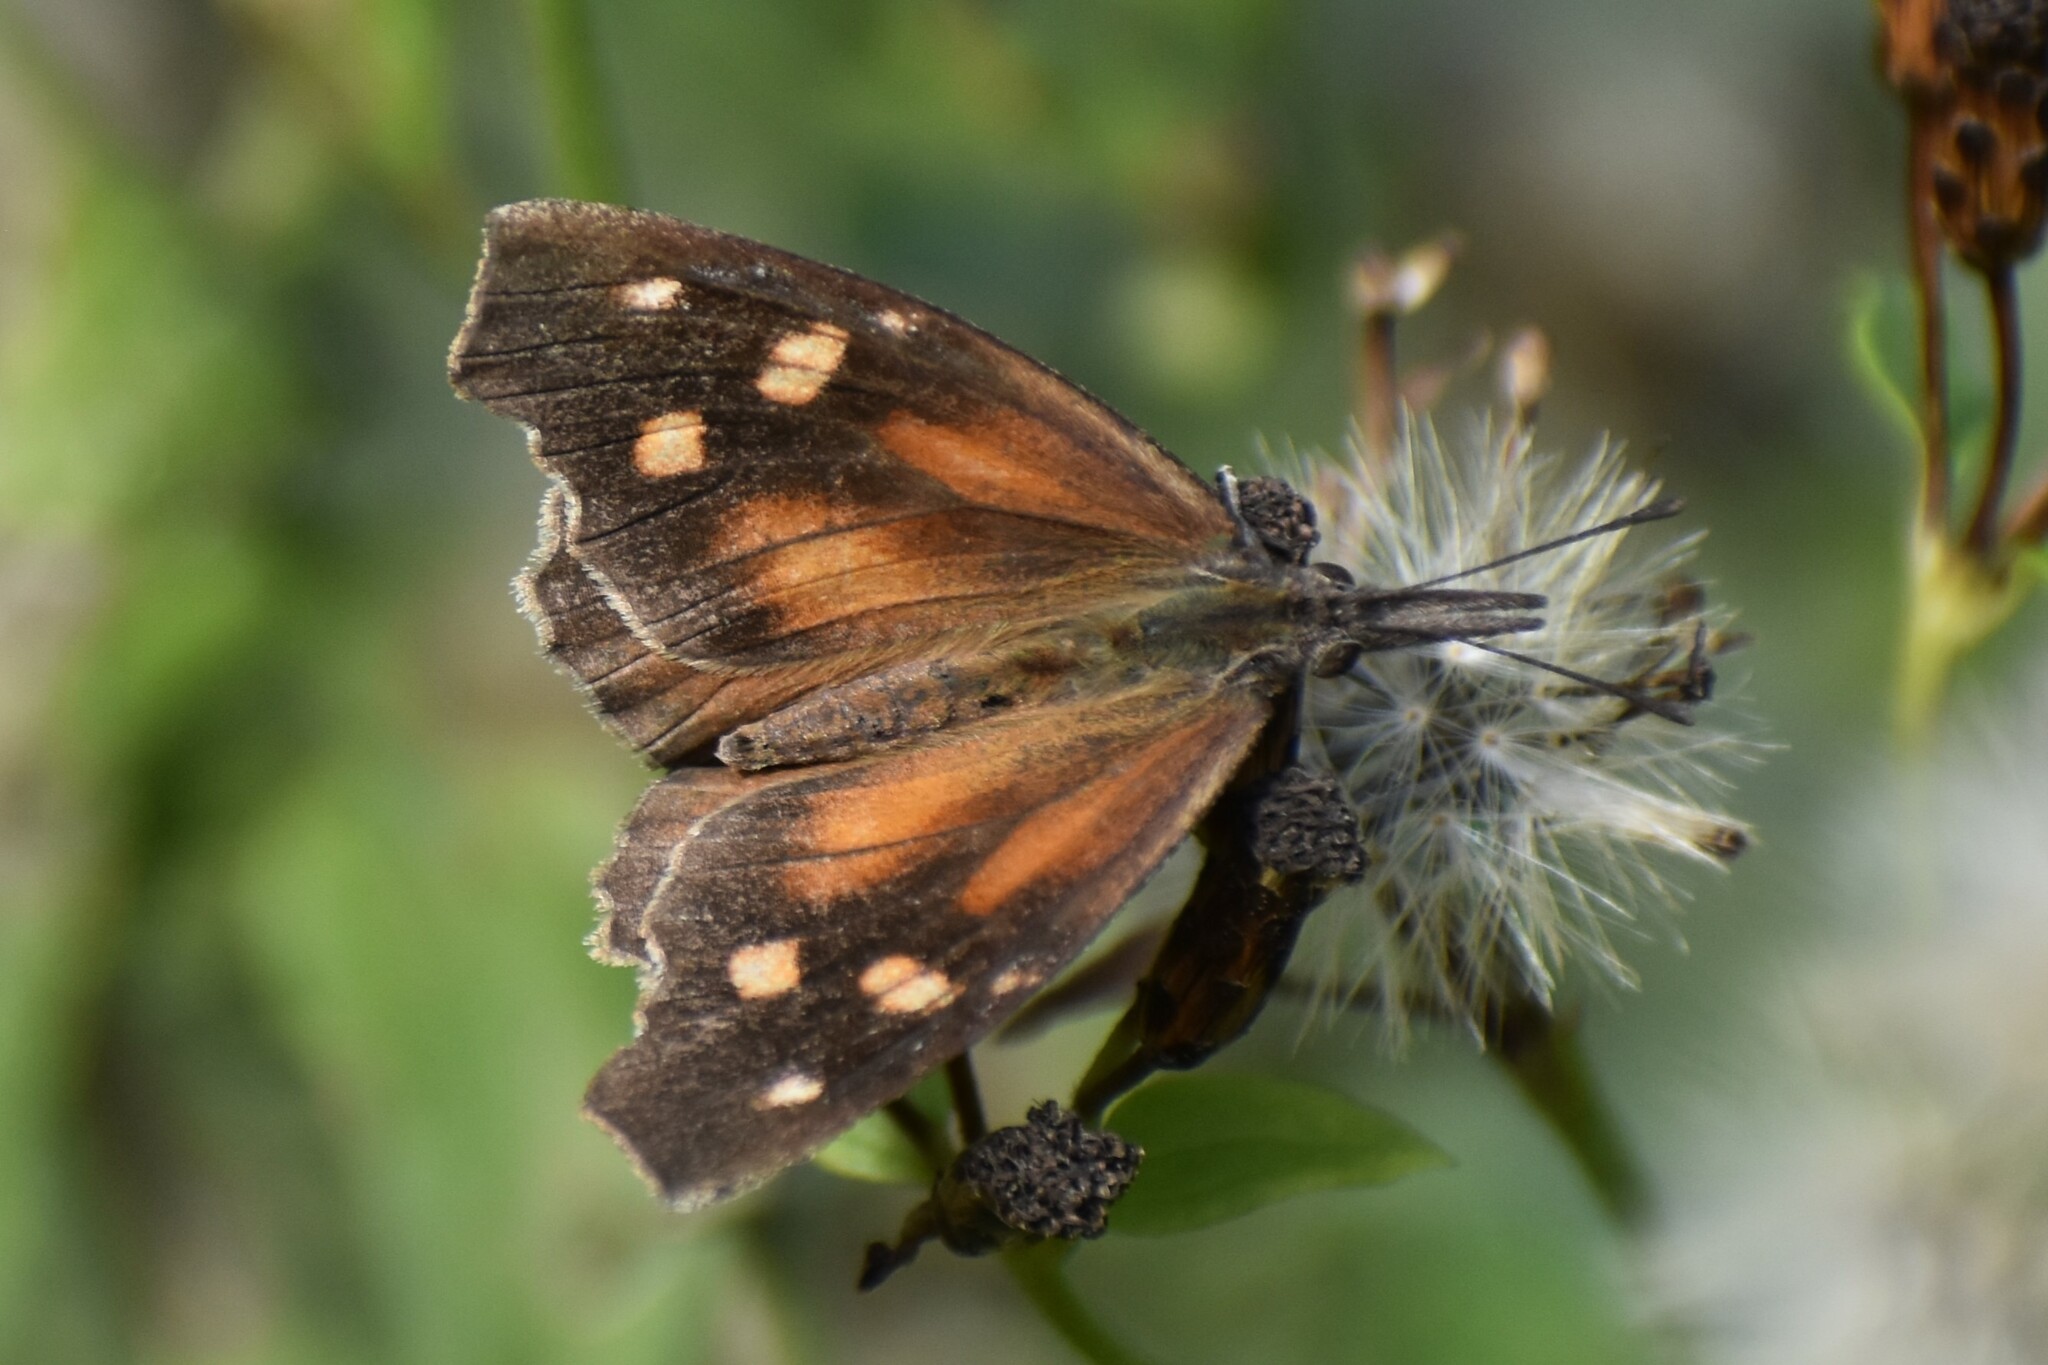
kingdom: Animalia
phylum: Arthropoda
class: Insecta
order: Lepidoptera
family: Nymphalidae
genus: Libytheana
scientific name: Libytheana carinenta
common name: American snout
